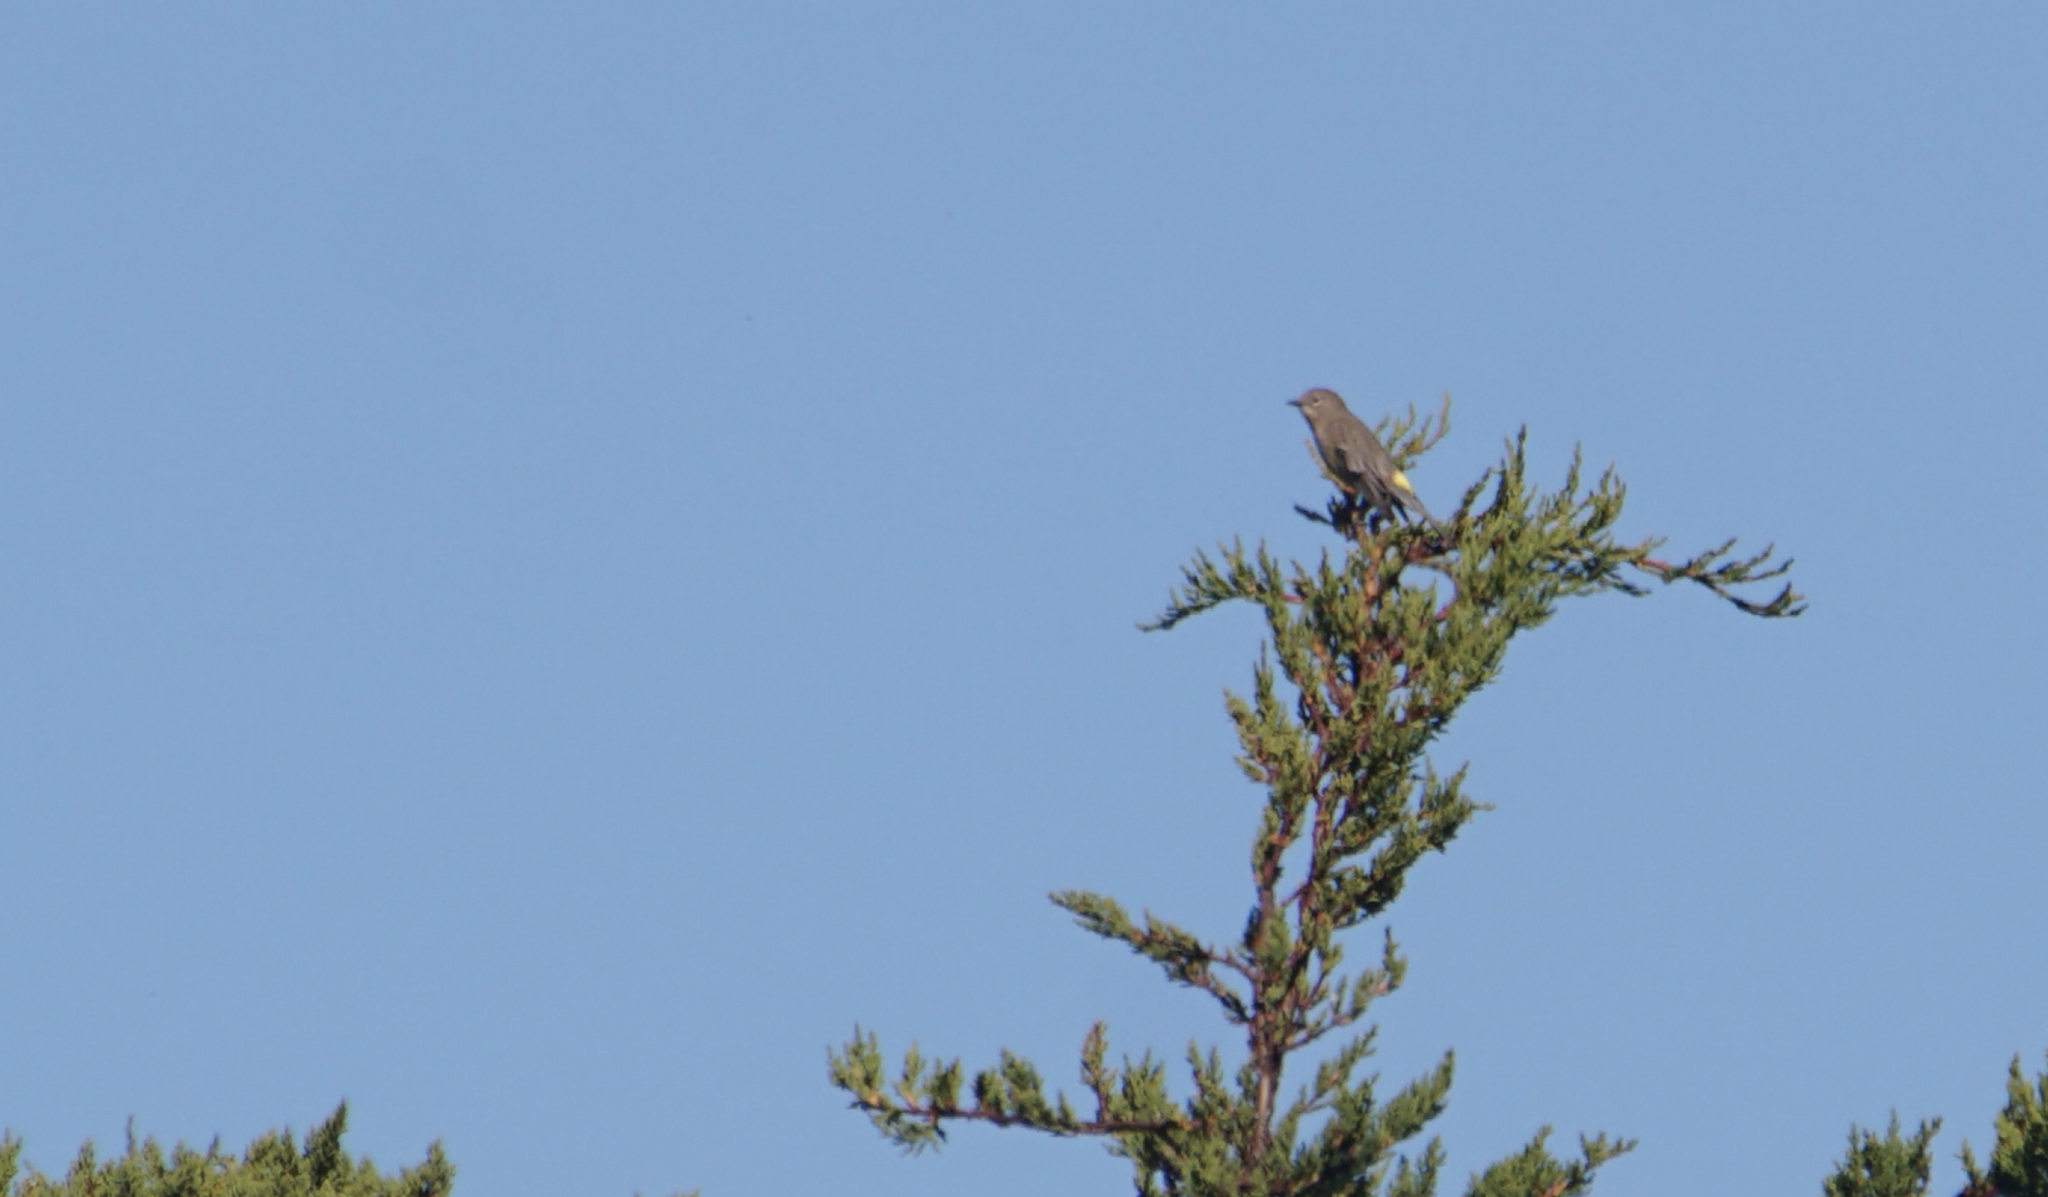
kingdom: Animalia
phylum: Chordata
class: Aves
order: Passeriformes
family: Parulidae
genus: Setophaga
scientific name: Setophaga coronata
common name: Myrtle warbler
